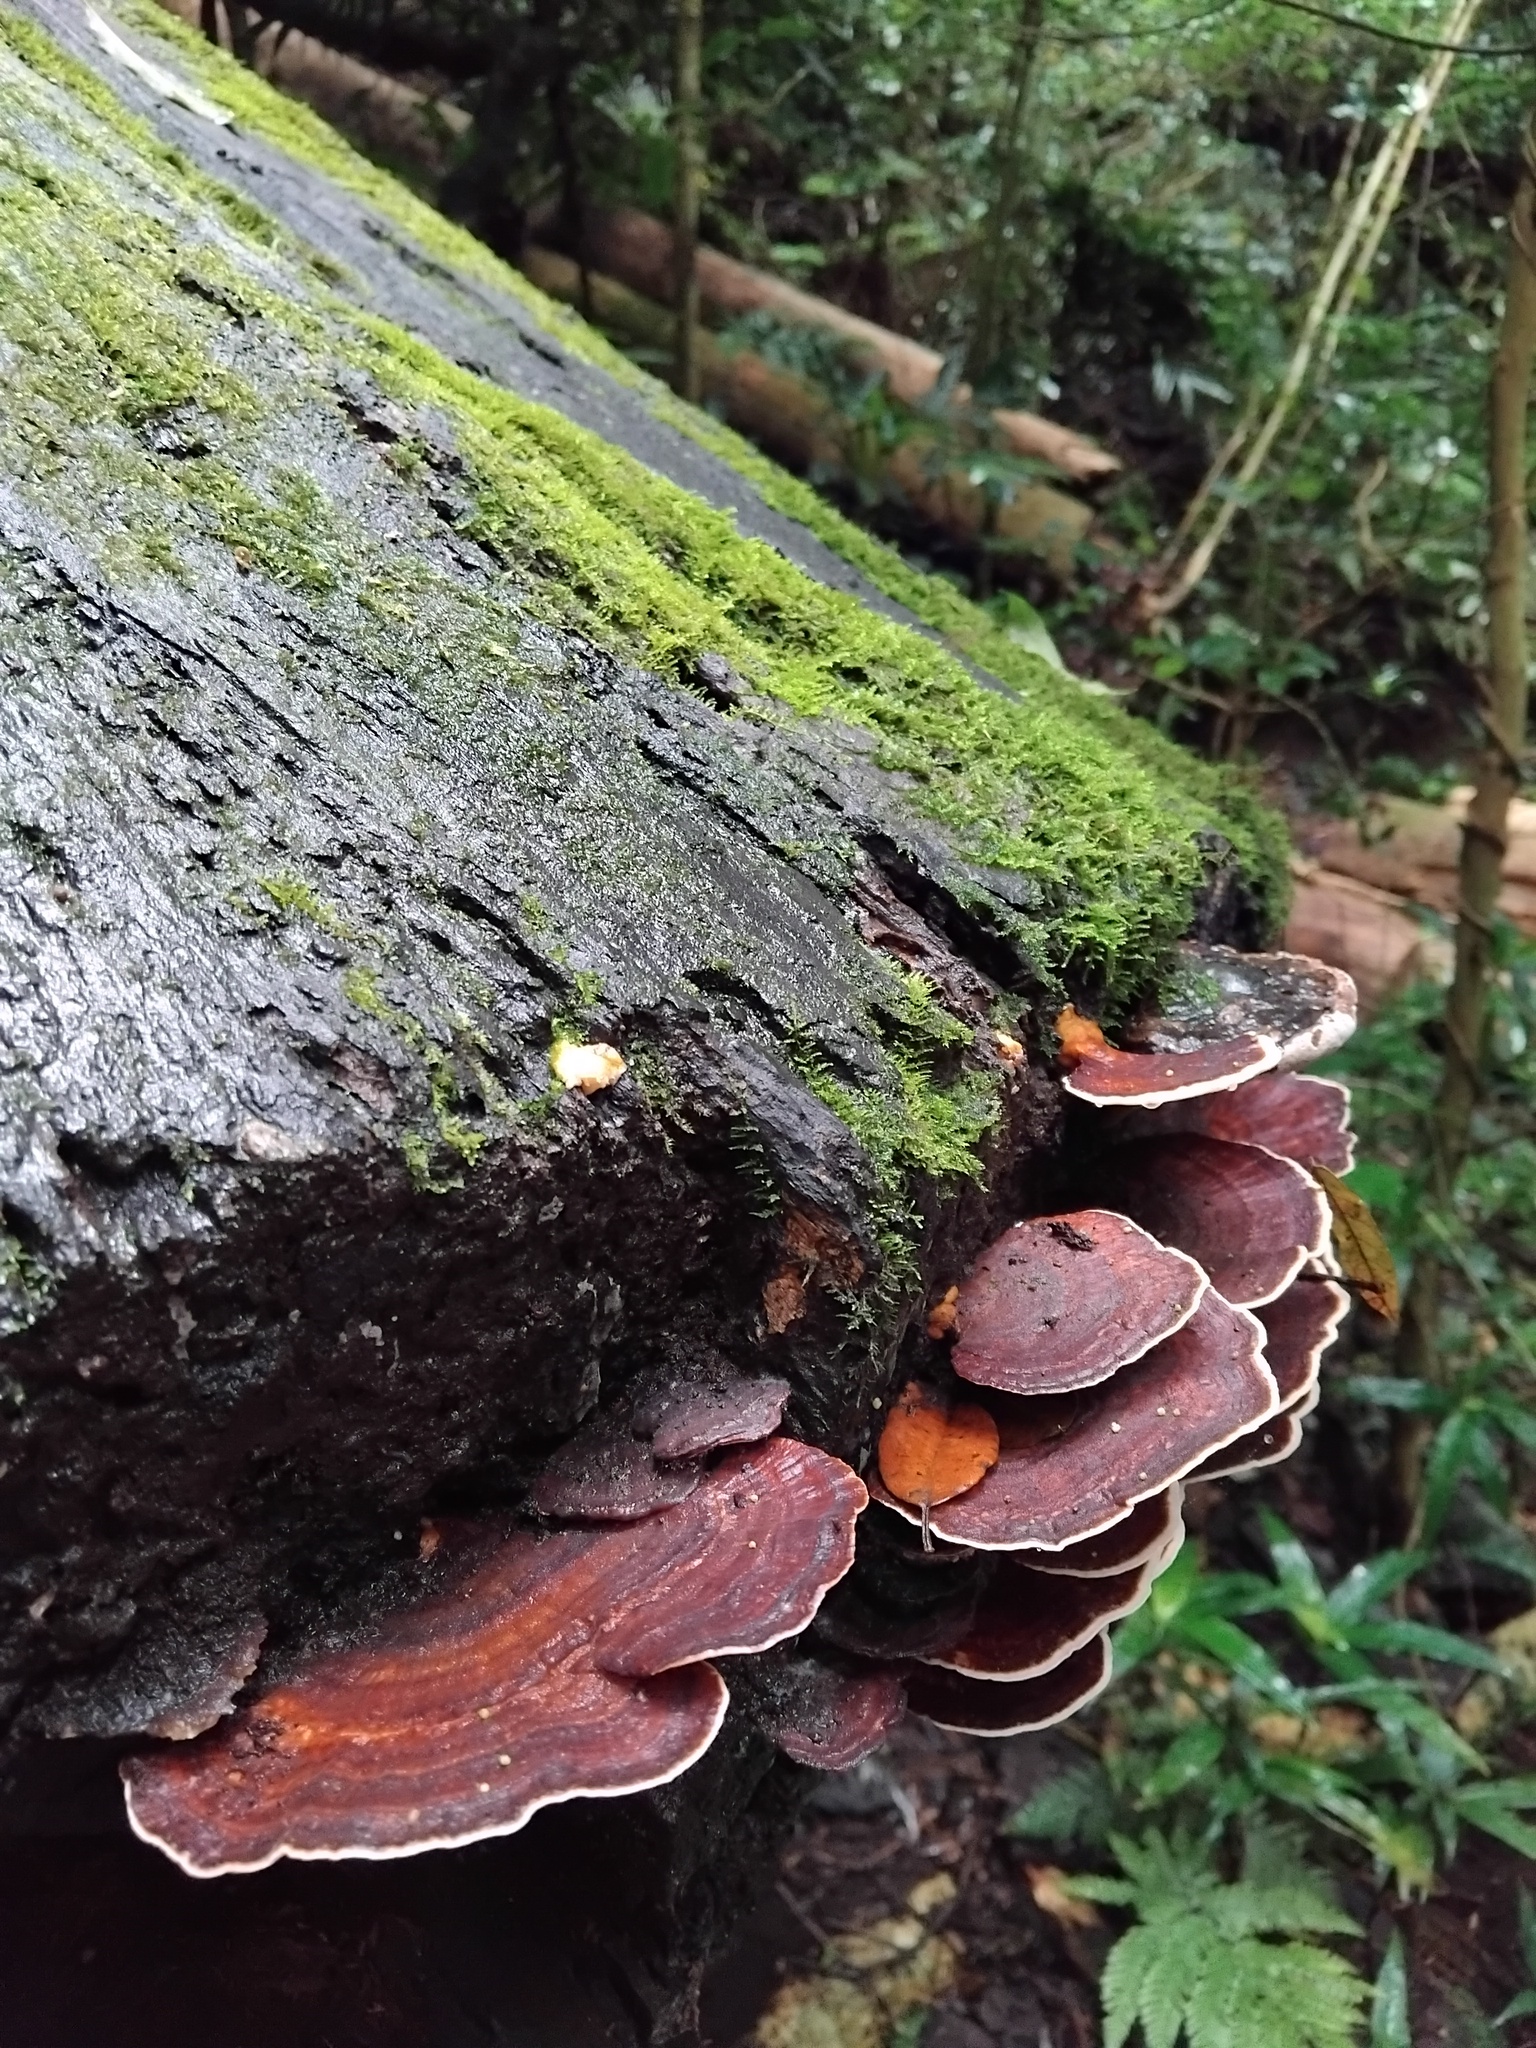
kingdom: Fungi
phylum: Basidiomycota
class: Agaricomycetes
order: Polyporales
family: Polyporaceae
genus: Microporus
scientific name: Microporus affinis
